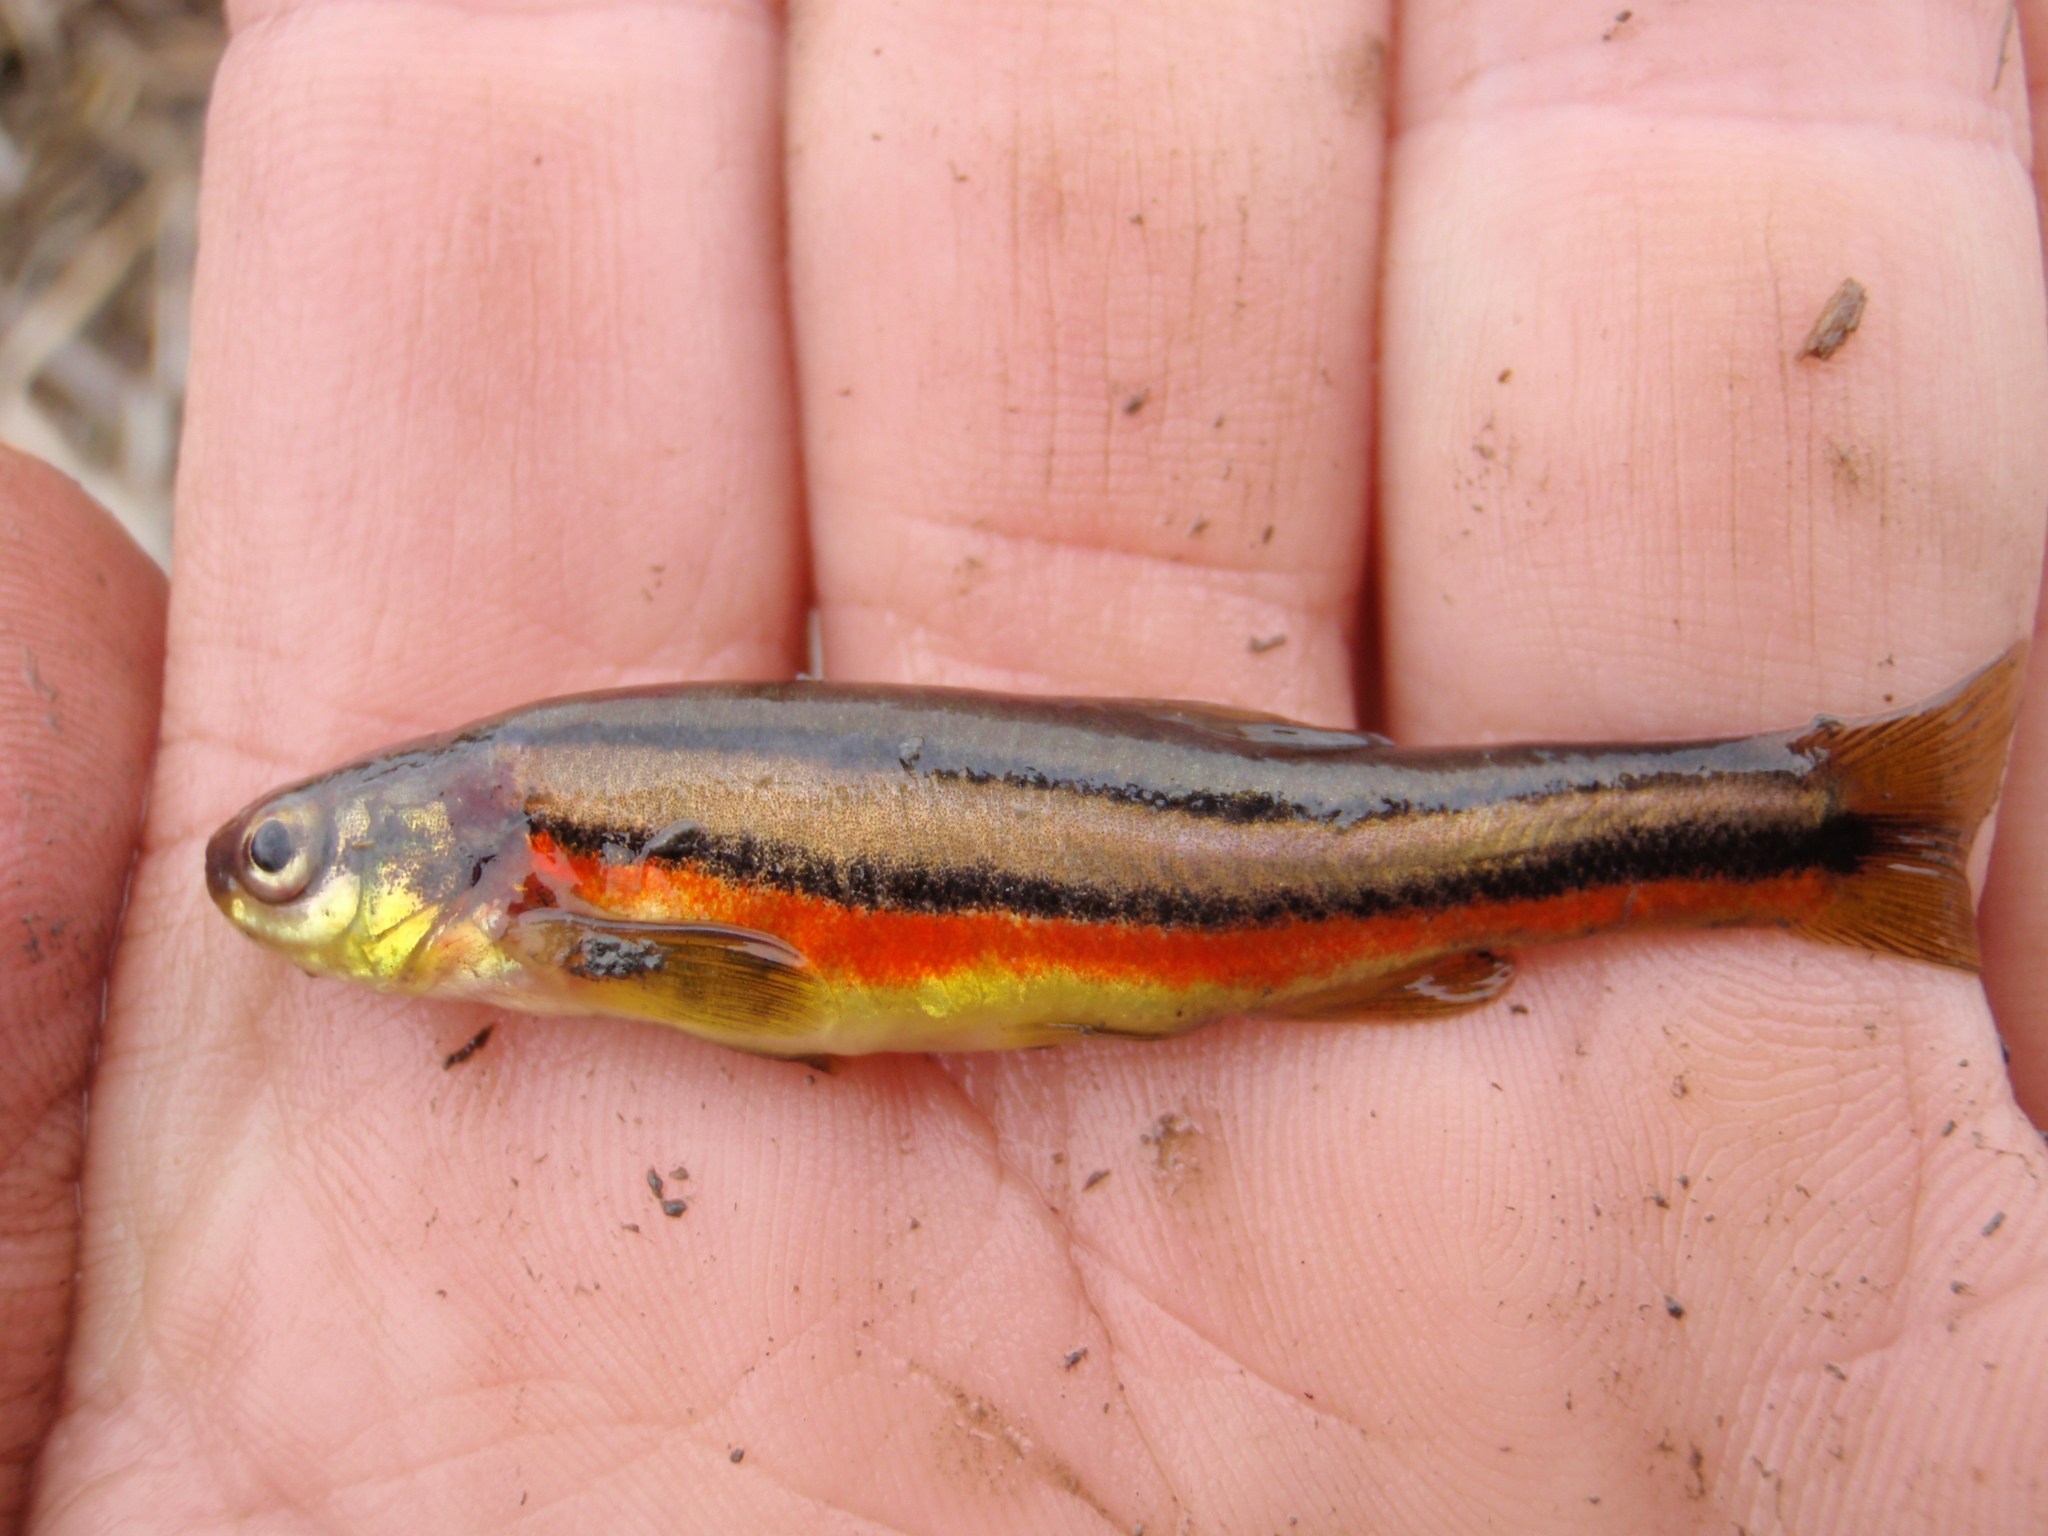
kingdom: Animalia
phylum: Chordata
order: Cypriniformes
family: Cyprinidae
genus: Chrosomus
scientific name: Chrosomus eos
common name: Northern redbelly dace
